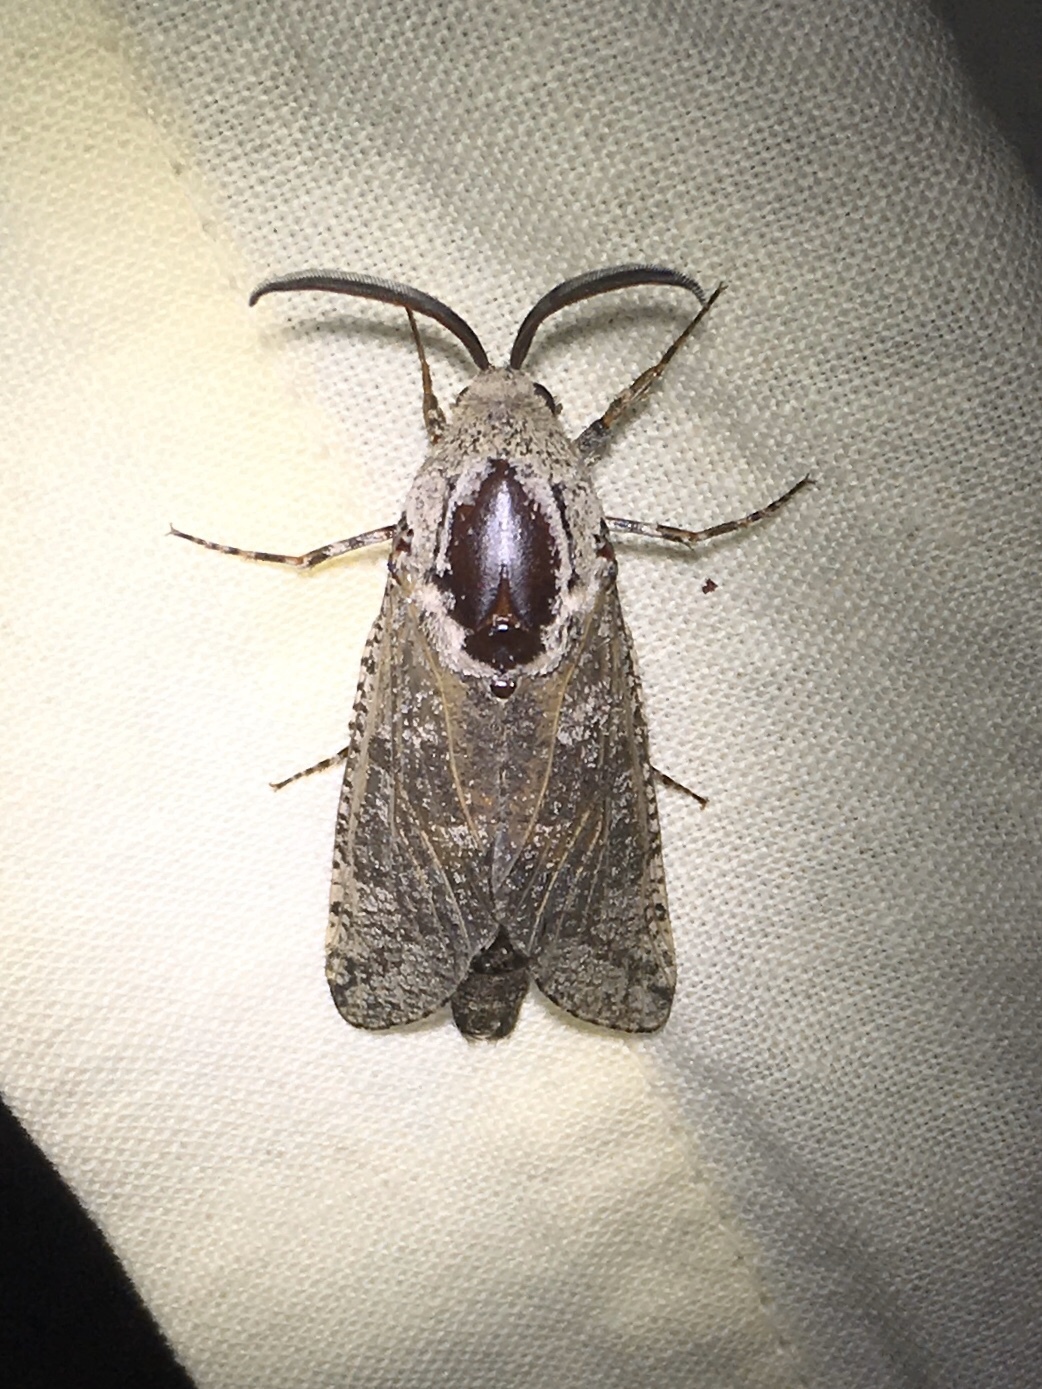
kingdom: Animalia
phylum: Arthropoda
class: Insecta
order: Lepidoptera
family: Cossidae
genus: Prionoxystus
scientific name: Prionoxystus robiniae
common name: Carpenterworm
